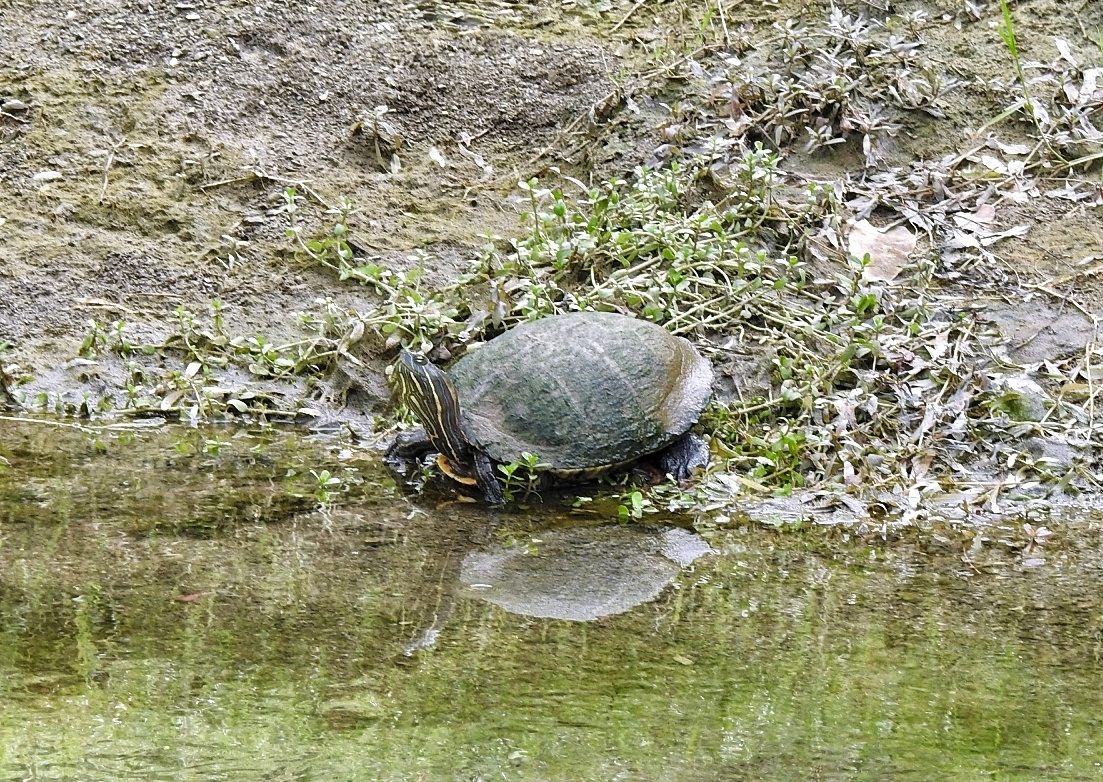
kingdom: Animalia
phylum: Chordata
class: Testudines
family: Emydidae
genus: Trachemys
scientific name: Trachemys venusta
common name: Mesoamerican slider
